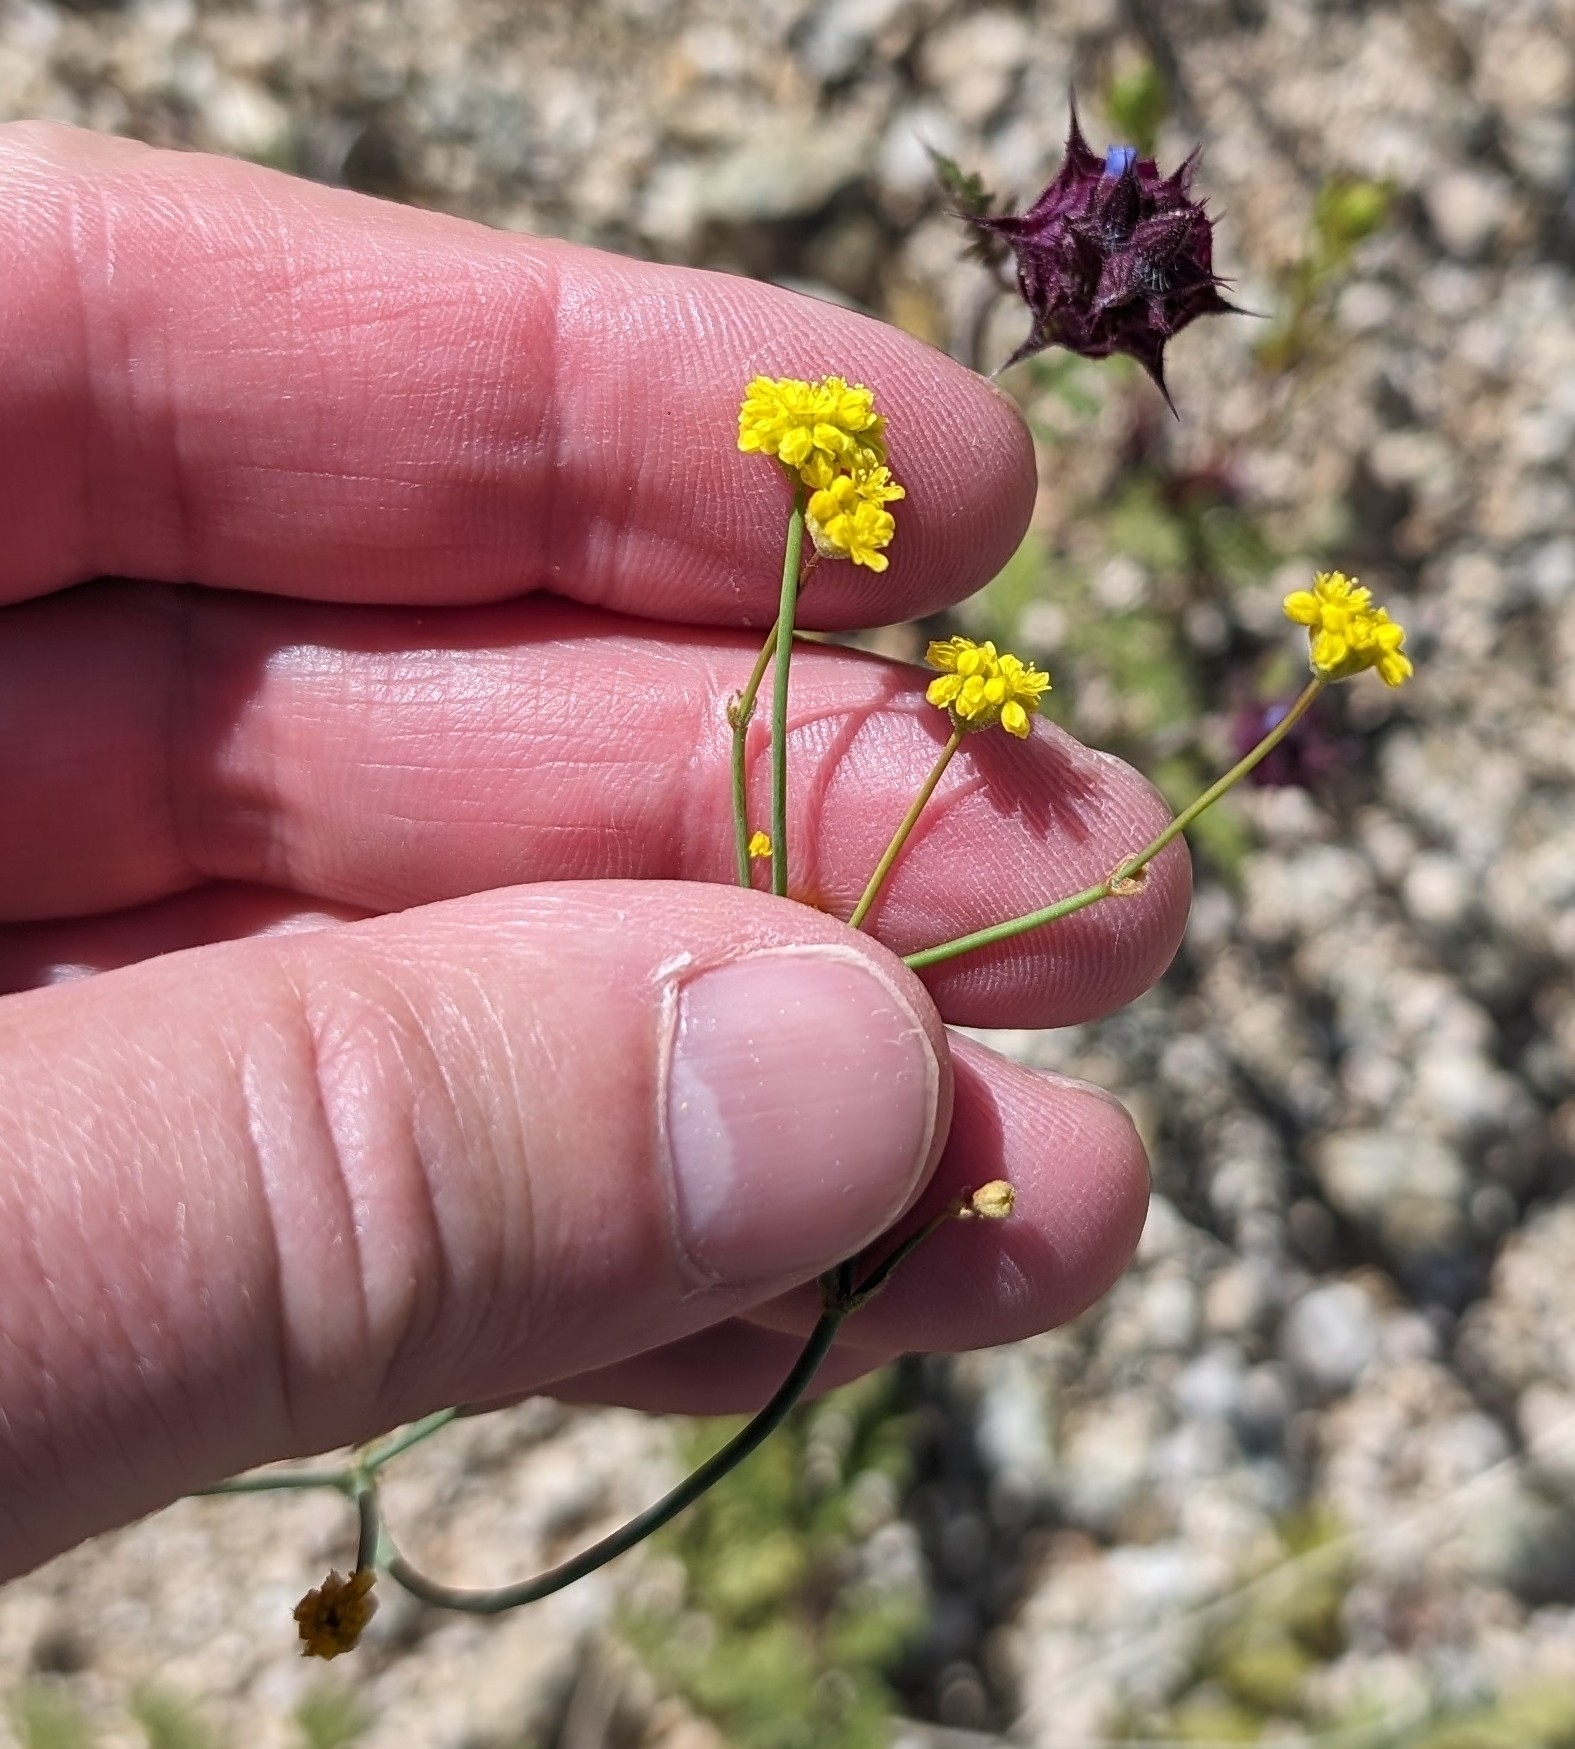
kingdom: Plantae
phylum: Tracheophyta
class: Magnoliopsida
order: Caryophyllales
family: Polygonaceae
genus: Eriogonum
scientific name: Eriogonum pusillum
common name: Yellow turbans
